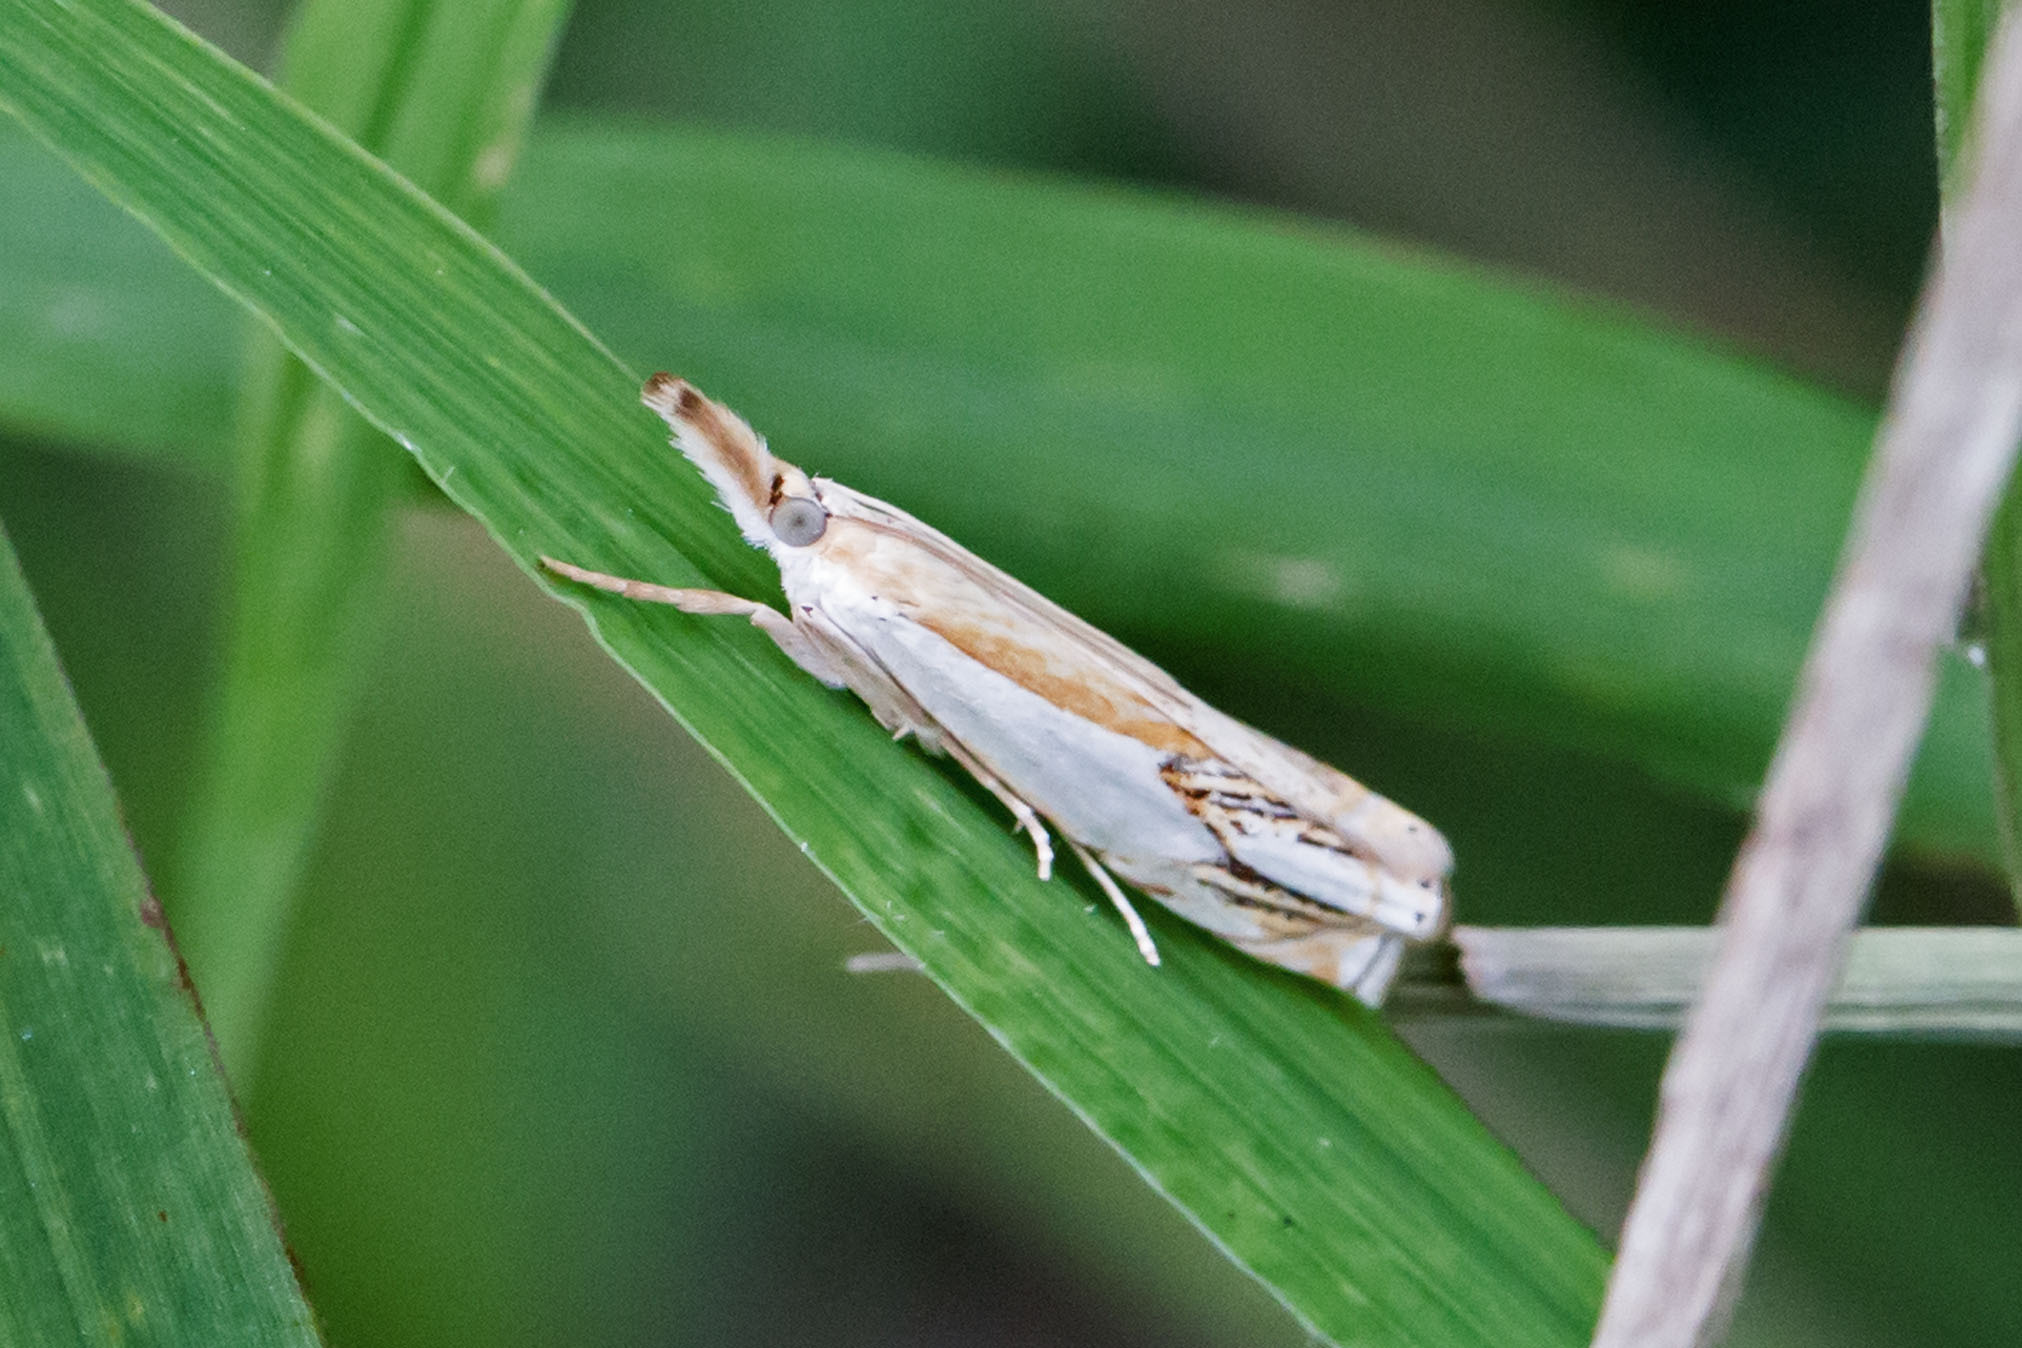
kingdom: Animalia
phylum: Arthropoda
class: Insecta
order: Lepidoptera
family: Crambidae
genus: Crambus
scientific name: Crambus agitatellus
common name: Double-banded grass-veneer
